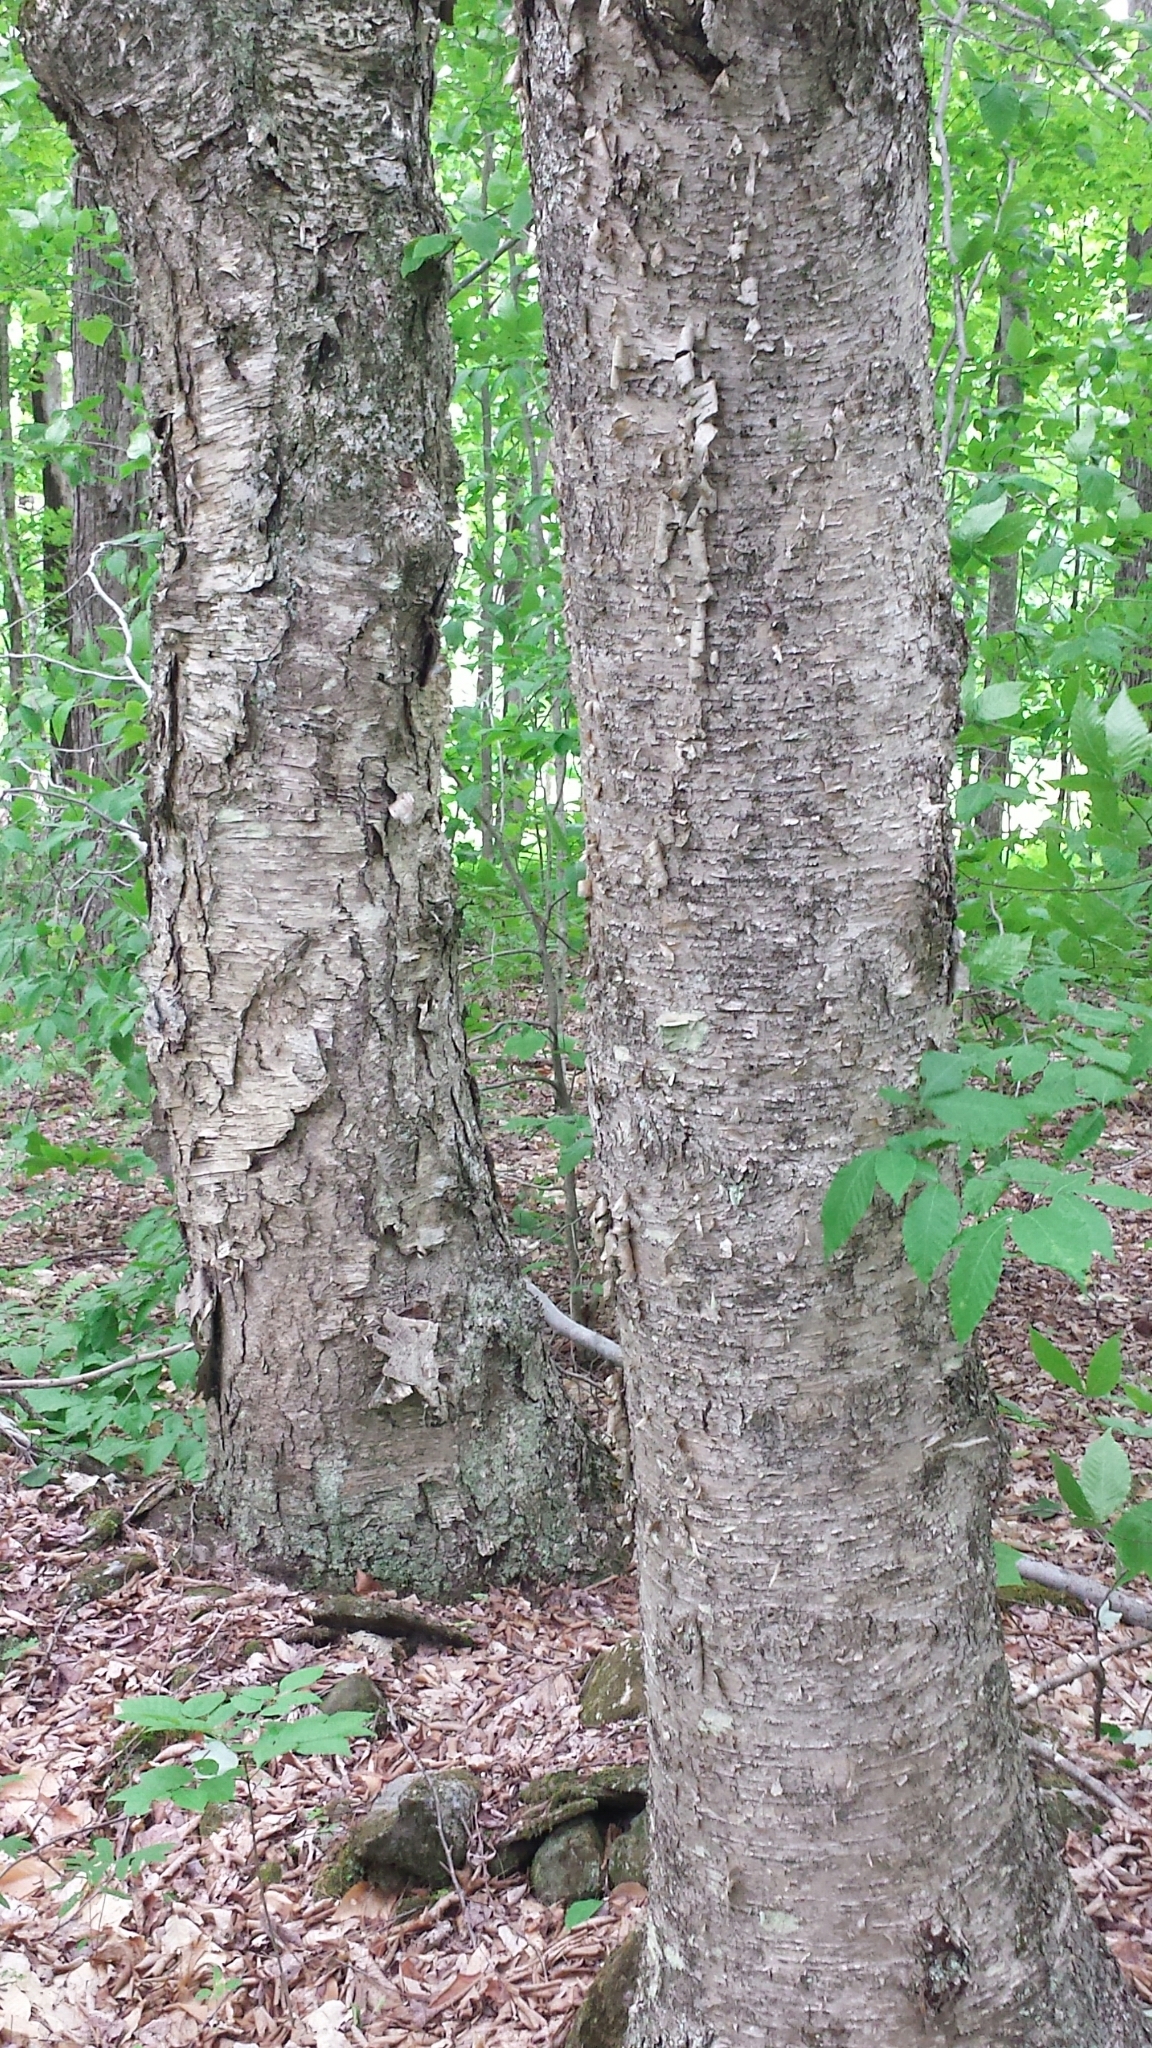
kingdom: Plantae
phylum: Tracheophyta
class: Magnoliopsida
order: Fagales
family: Betulaceae
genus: Betula
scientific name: Betula alleghaniensis
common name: Yellow birch
